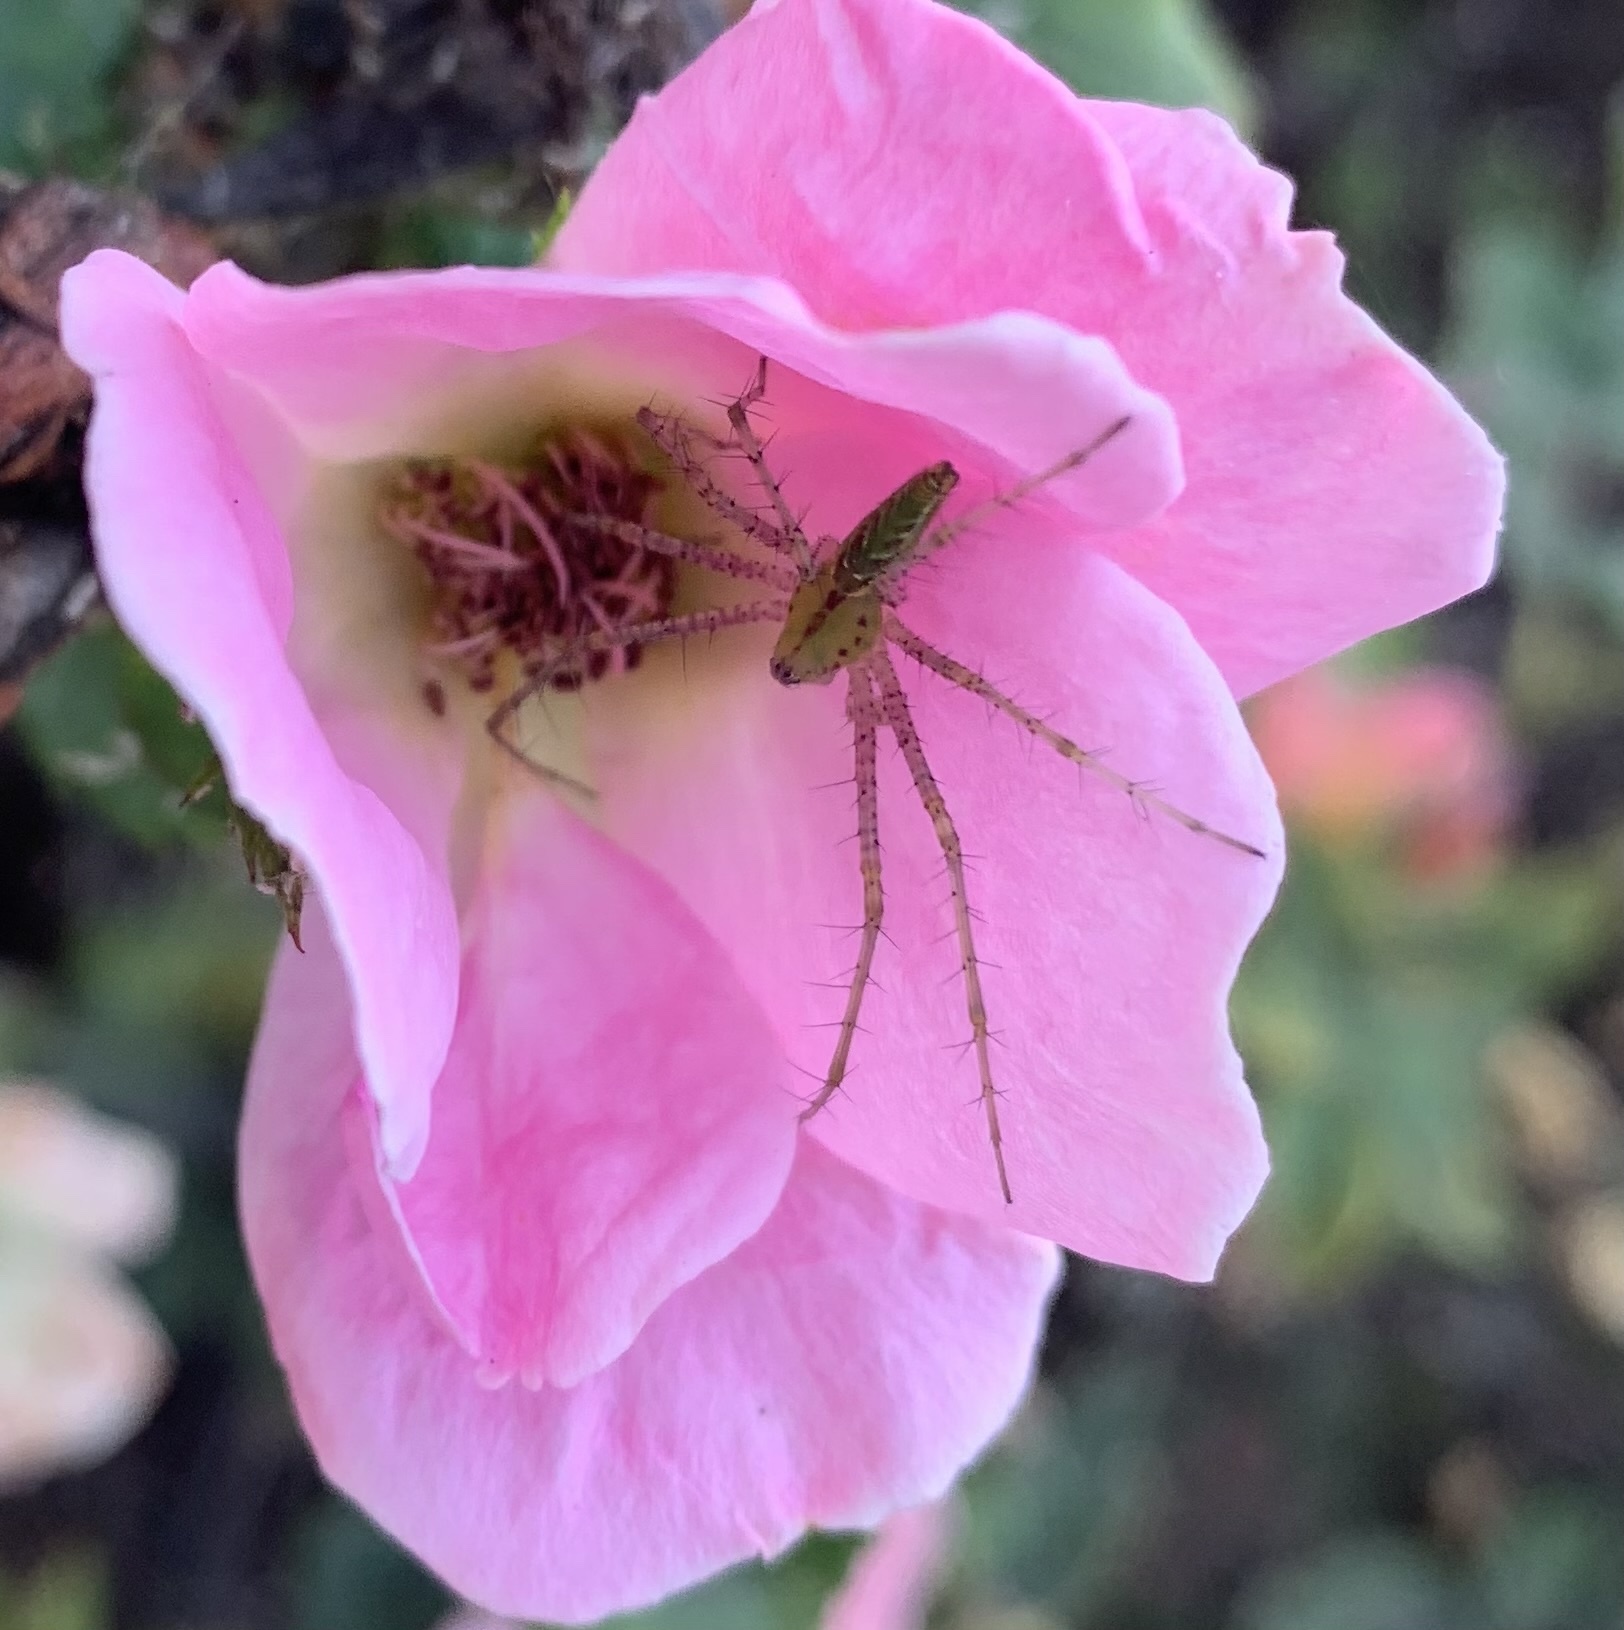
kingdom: Animalia
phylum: Arthropoda
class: Arachnida
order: Araneae
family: Oxyopidae
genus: Peucetia
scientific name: Peucetia viridans
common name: Lynx spiders
